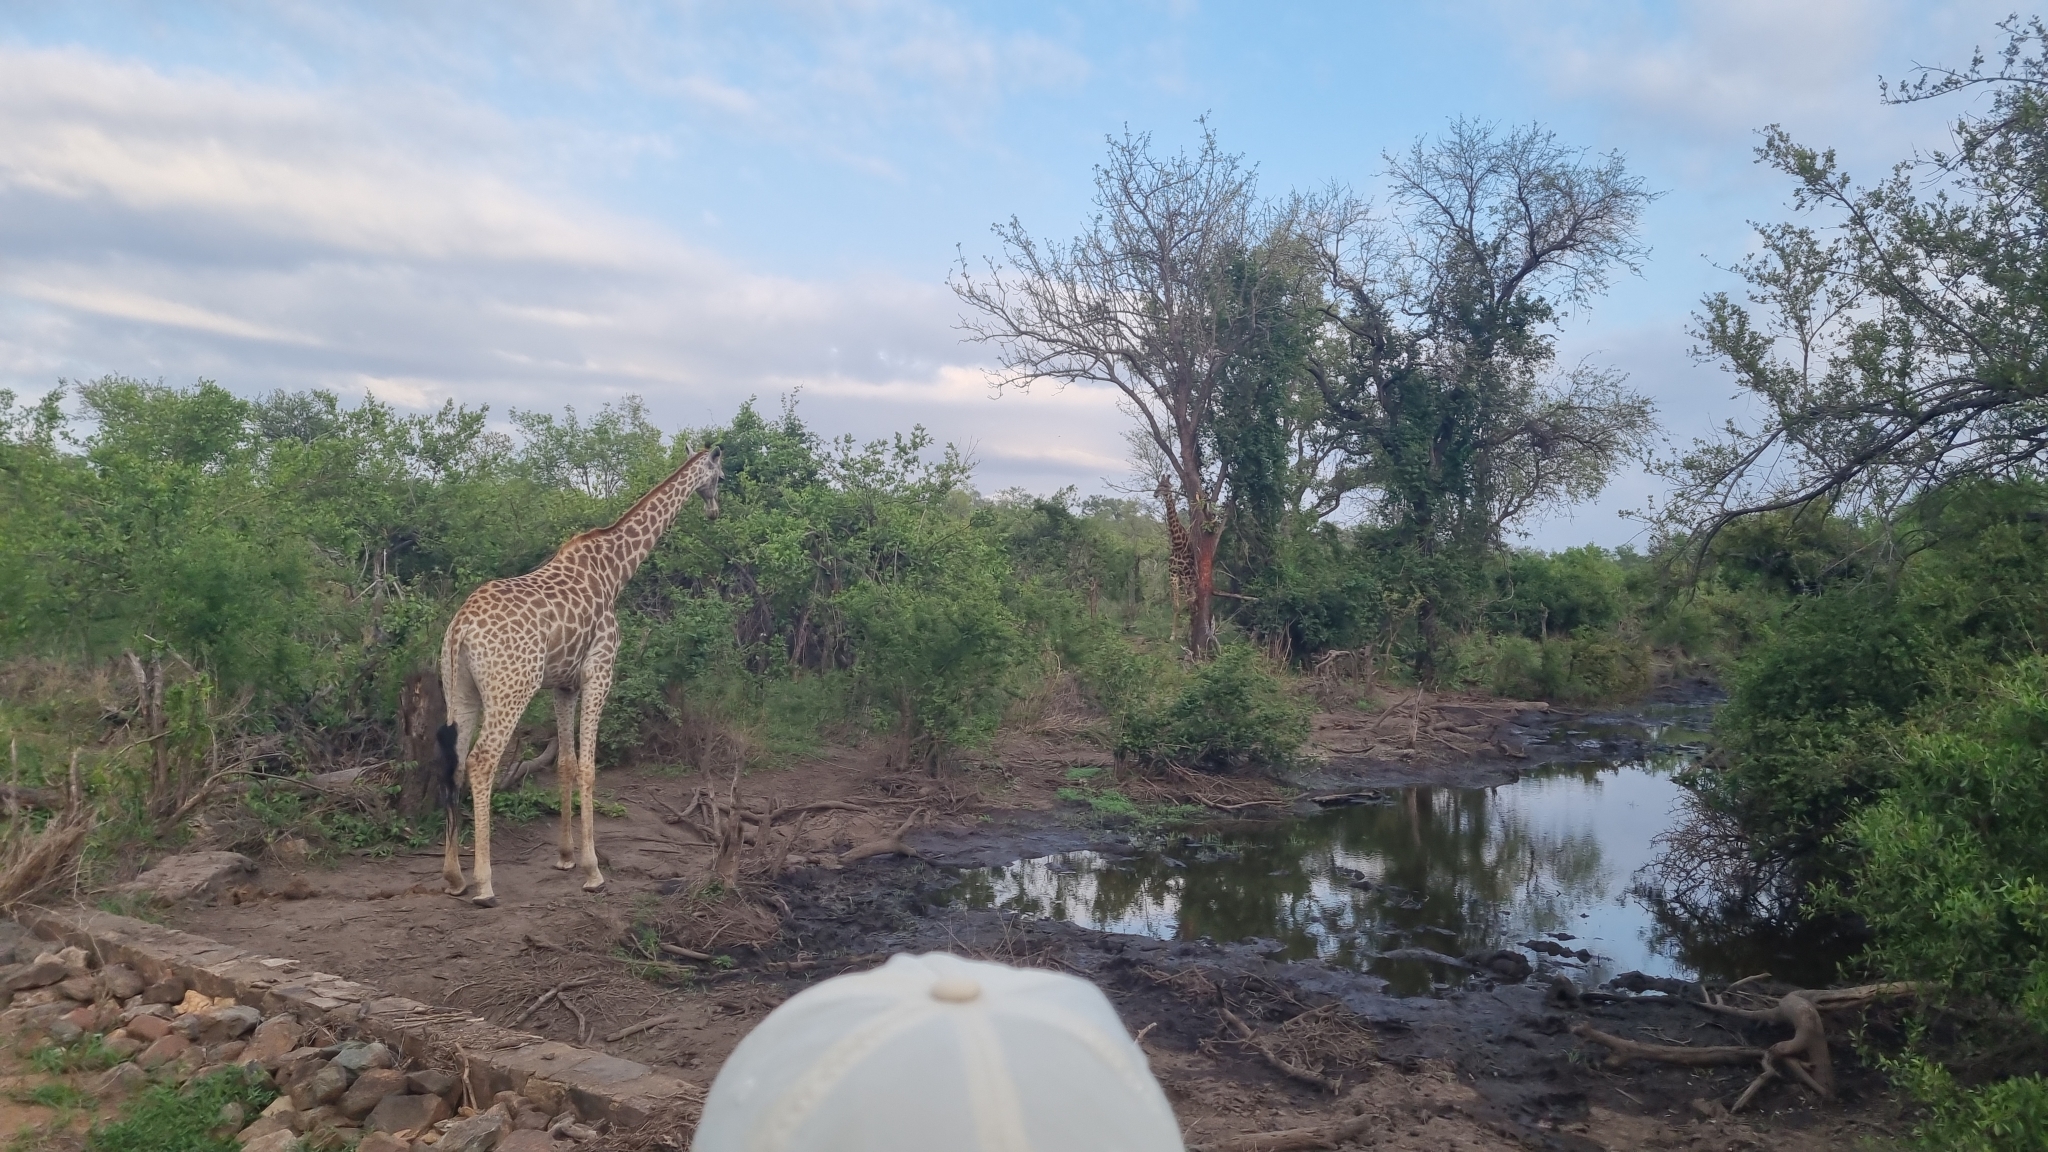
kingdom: Animalia
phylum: Chordata
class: Mammalia
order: Artiodactyla
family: Giraffidae
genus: Giraffa
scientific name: Giraffa giraffa
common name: Southern giraffe
